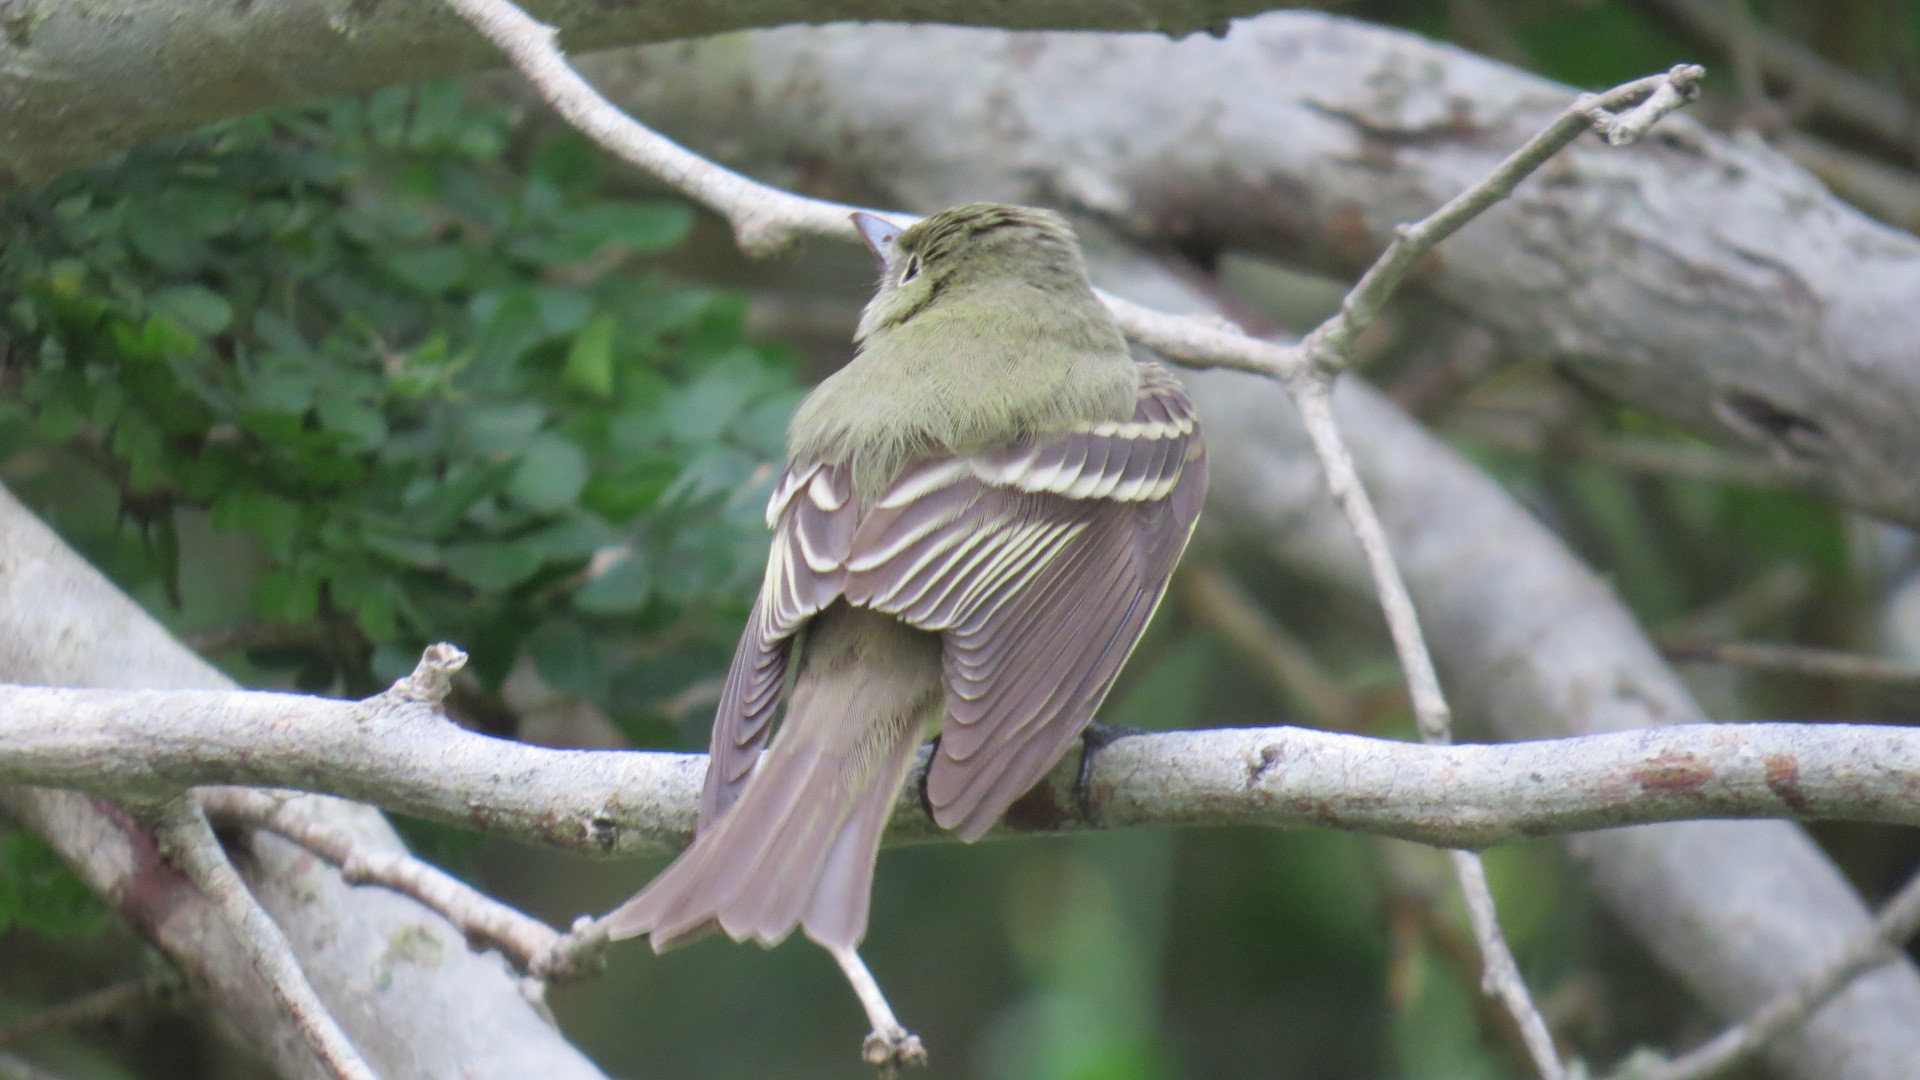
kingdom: Animalia
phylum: Chordata
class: Aves
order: Passeriformes
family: Tyrannidae
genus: Empidonax
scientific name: Empidonax virescens
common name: Acadian flycatcher
